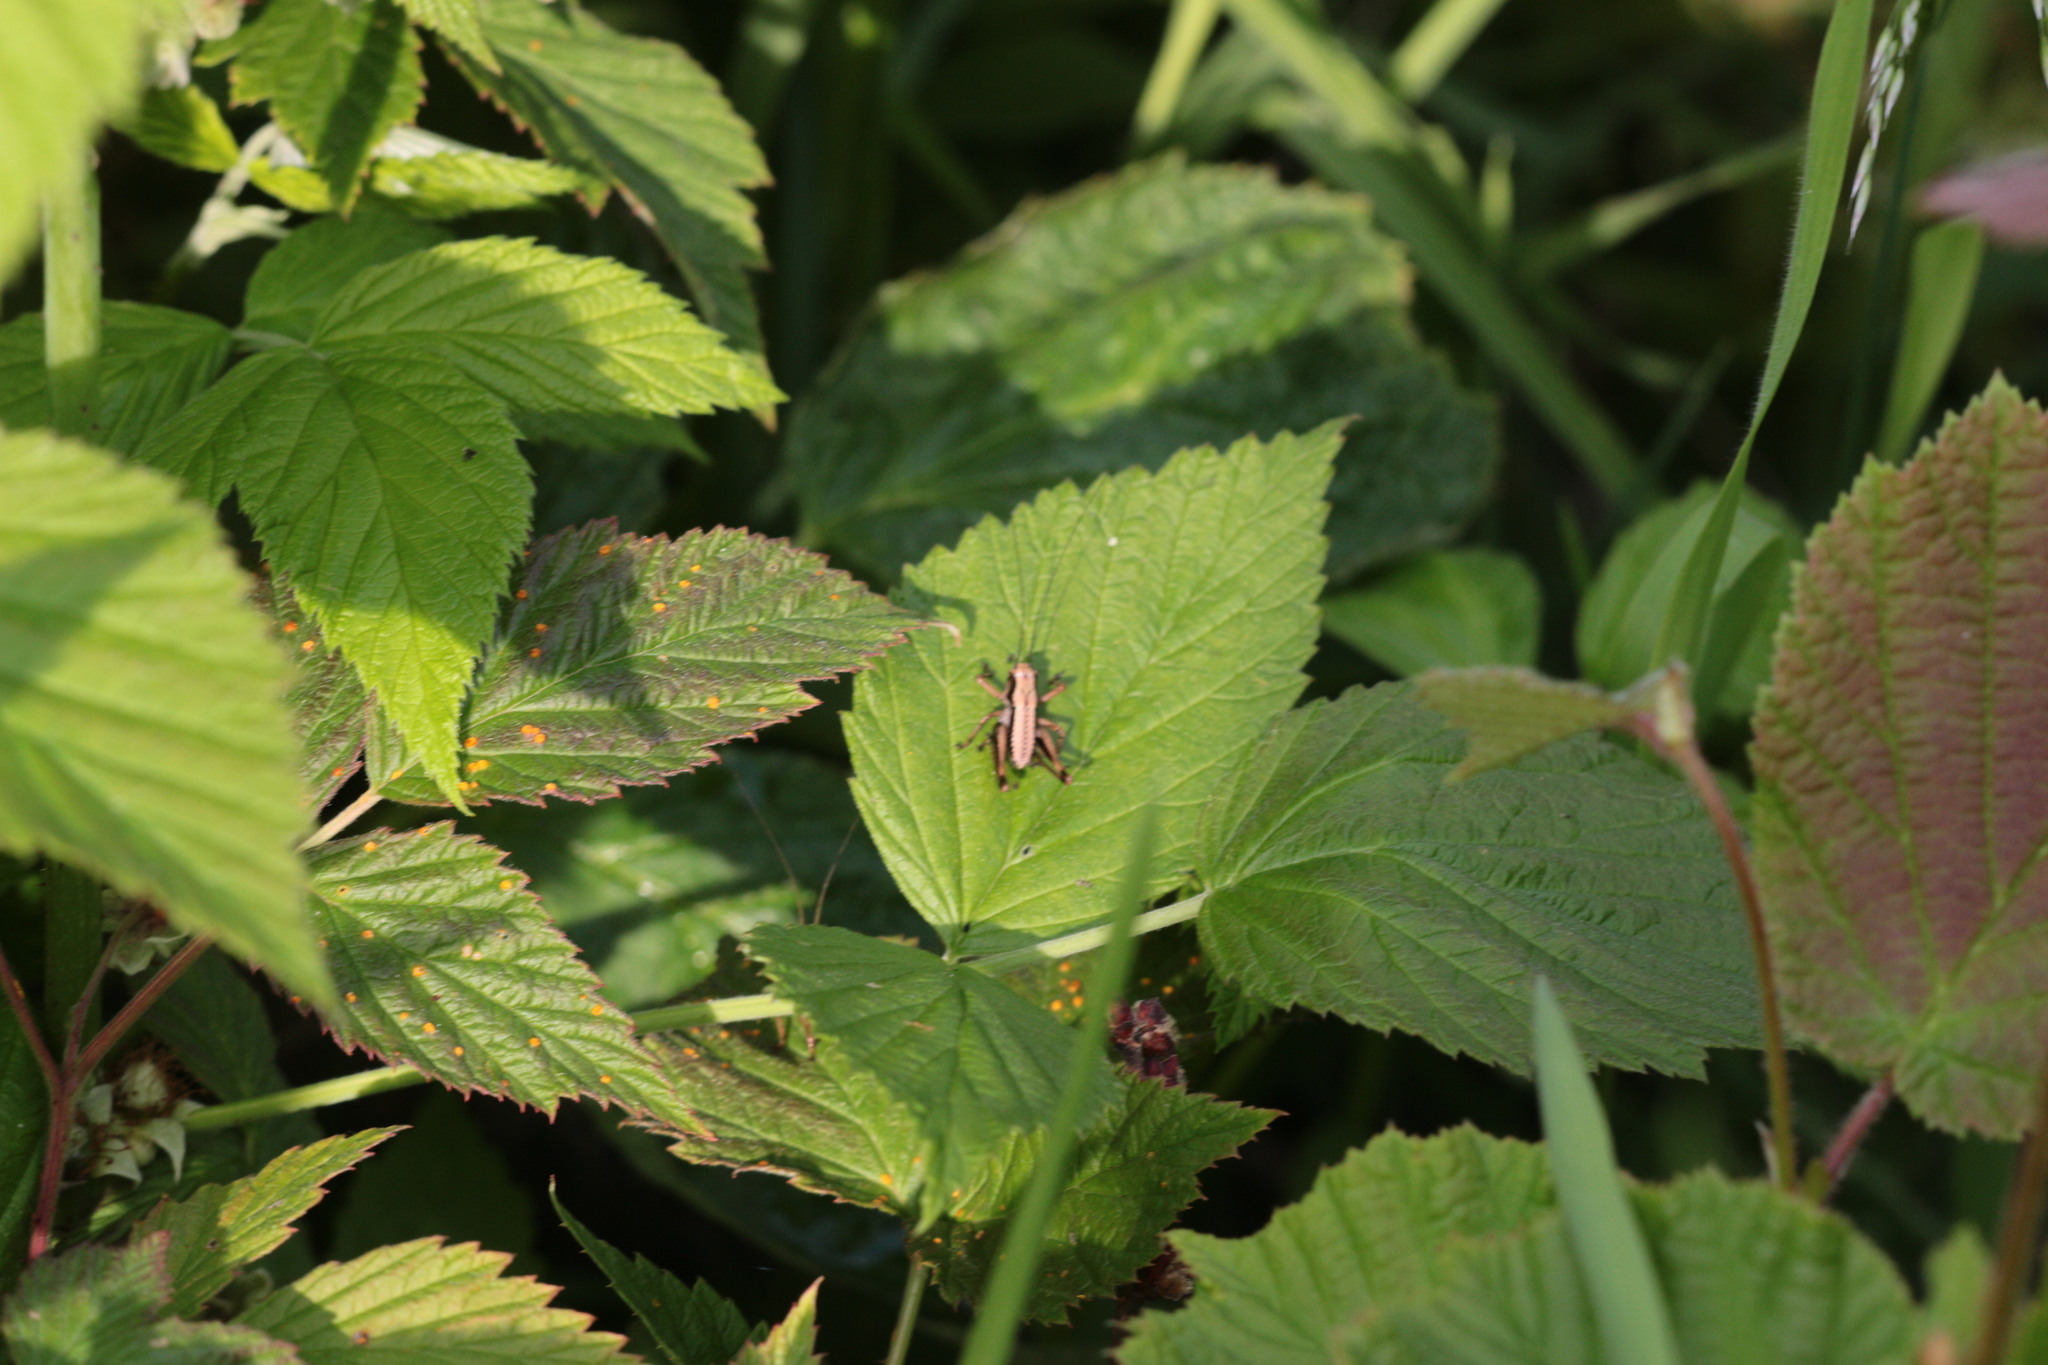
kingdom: Animalia
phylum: Arthropoda
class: Insecta
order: Orthoptera
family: Tettigoniidae
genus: Pholidoptera
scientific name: Pholidoptera griseoaptera
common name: Dark bush-cricket
